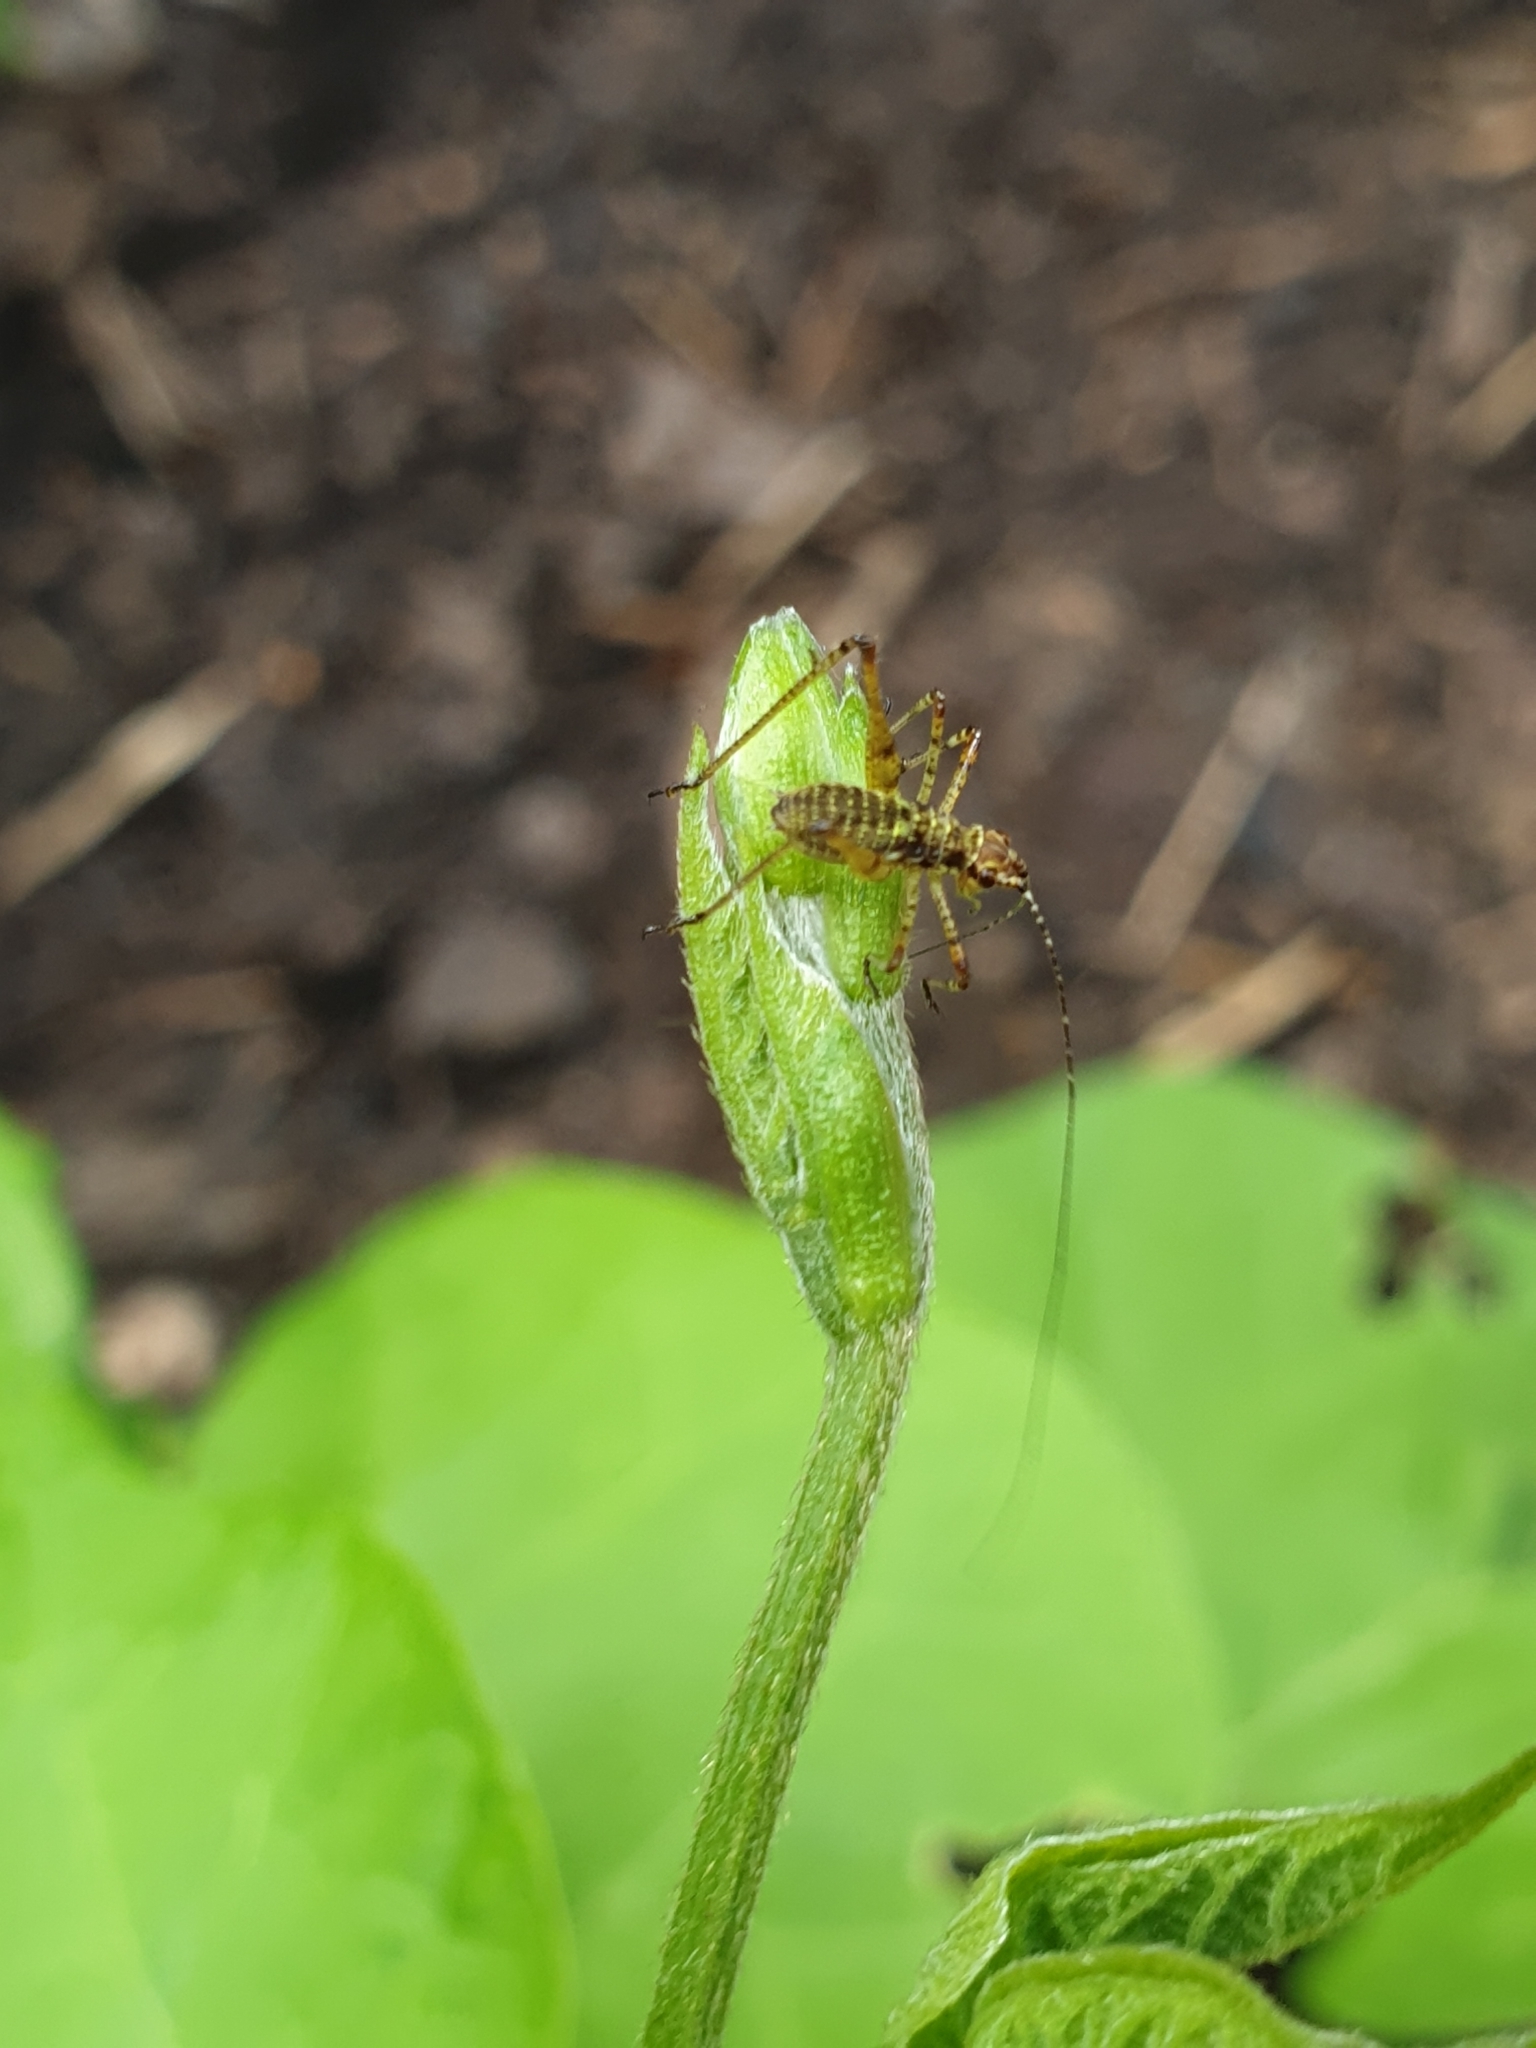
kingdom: Animalia
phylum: Arthropoda
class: Insecta
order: Orthoptera
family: Tettigoniidae
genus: Leptophyes
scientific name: Leptophyes punctatissima
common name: Speckled bush-cricket
